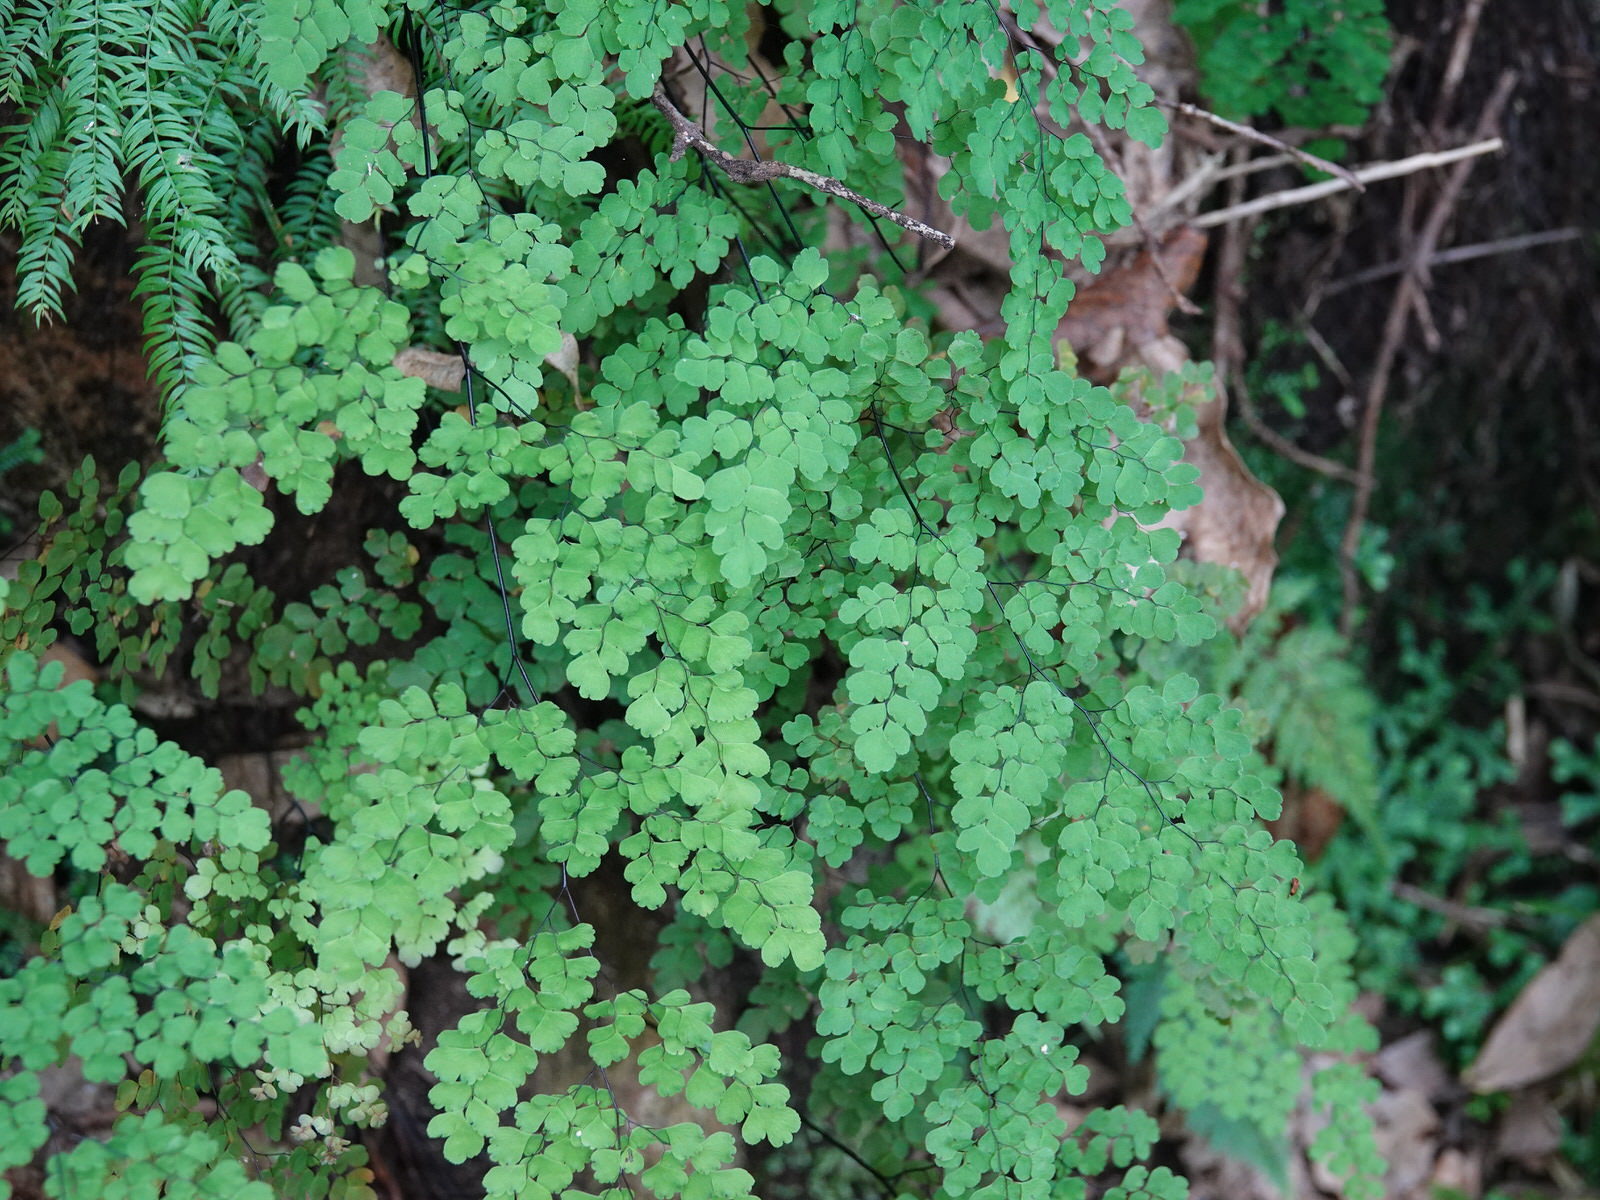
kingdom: Plantae
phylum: Tracheophyta
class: Polypodiopsida
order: Polypodiales
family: Pteridaceae
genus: Adiantum
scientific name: Adiantum raddianum
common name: Delta maidenhair fern
